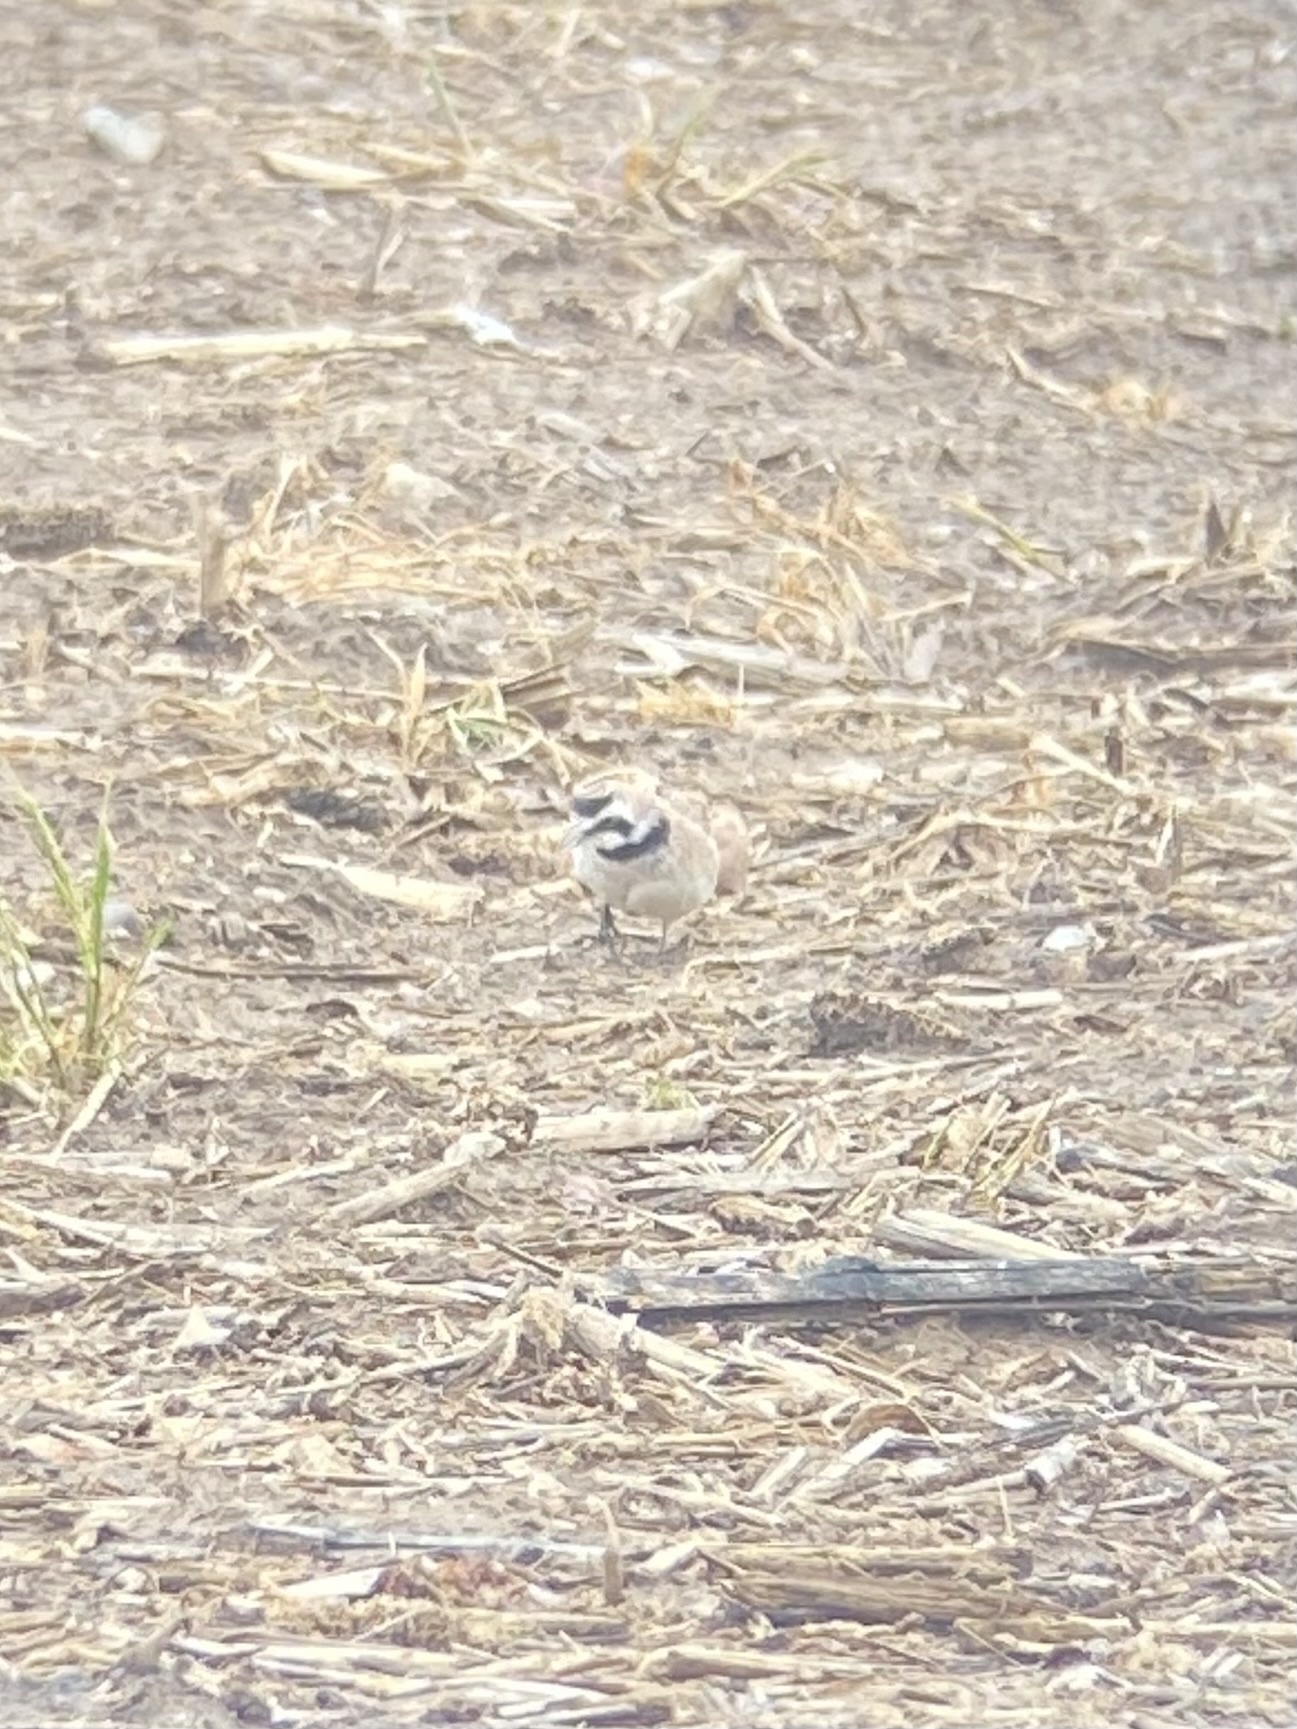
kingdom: Animalia
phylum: Chordata
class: Aves
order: Passeriformes
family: Alaudidae
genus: Eremophila
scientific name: Eremophila alpestris
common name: Horned lark
